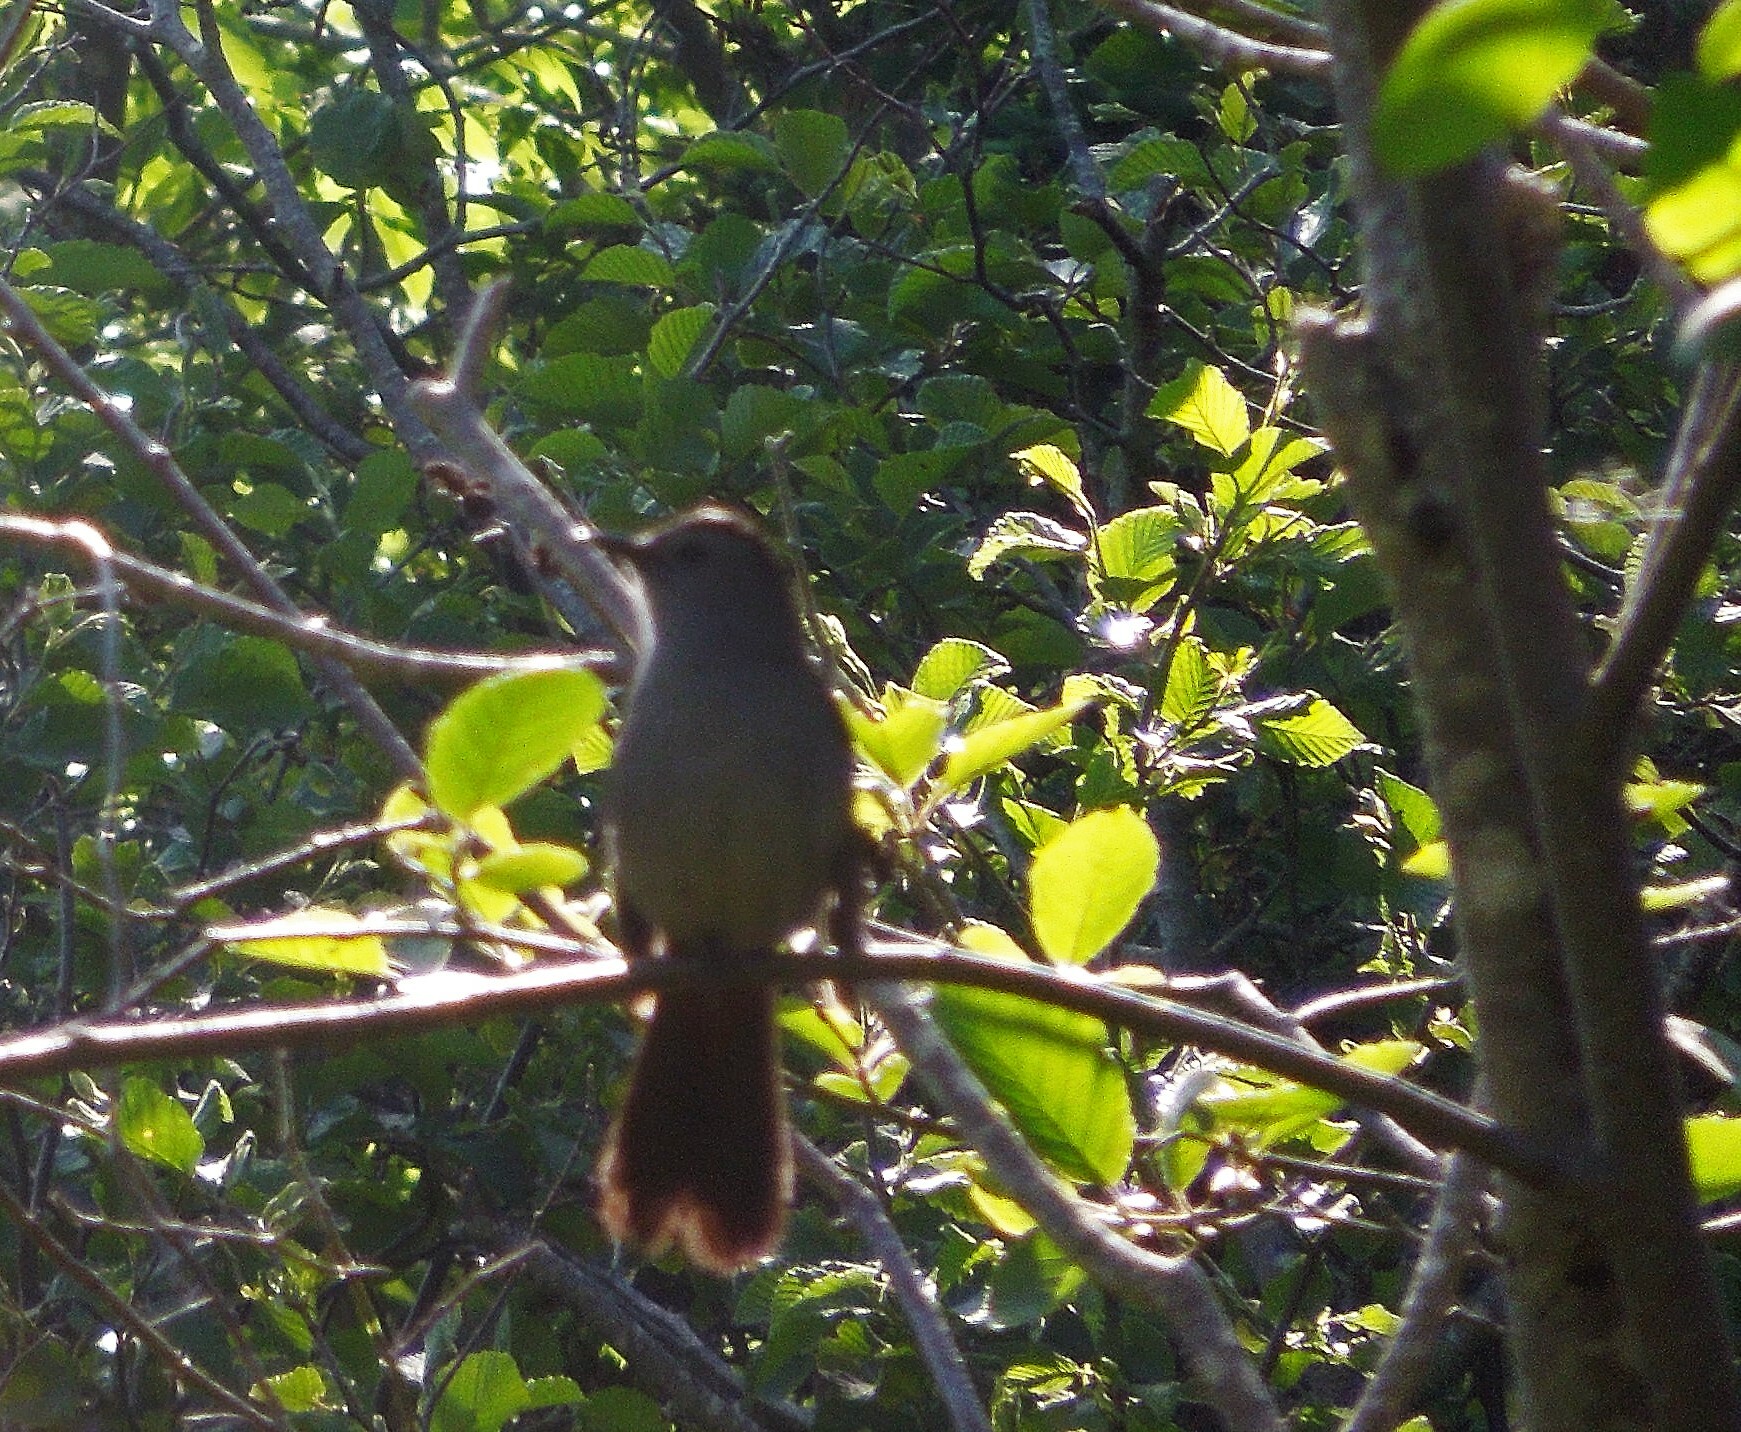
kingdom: Animalia
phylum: Chordata
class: Aves
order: Passeriformes
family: Mimidae
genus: Dumetella
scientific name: Dumetella carolinensis
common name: Gray catbird
